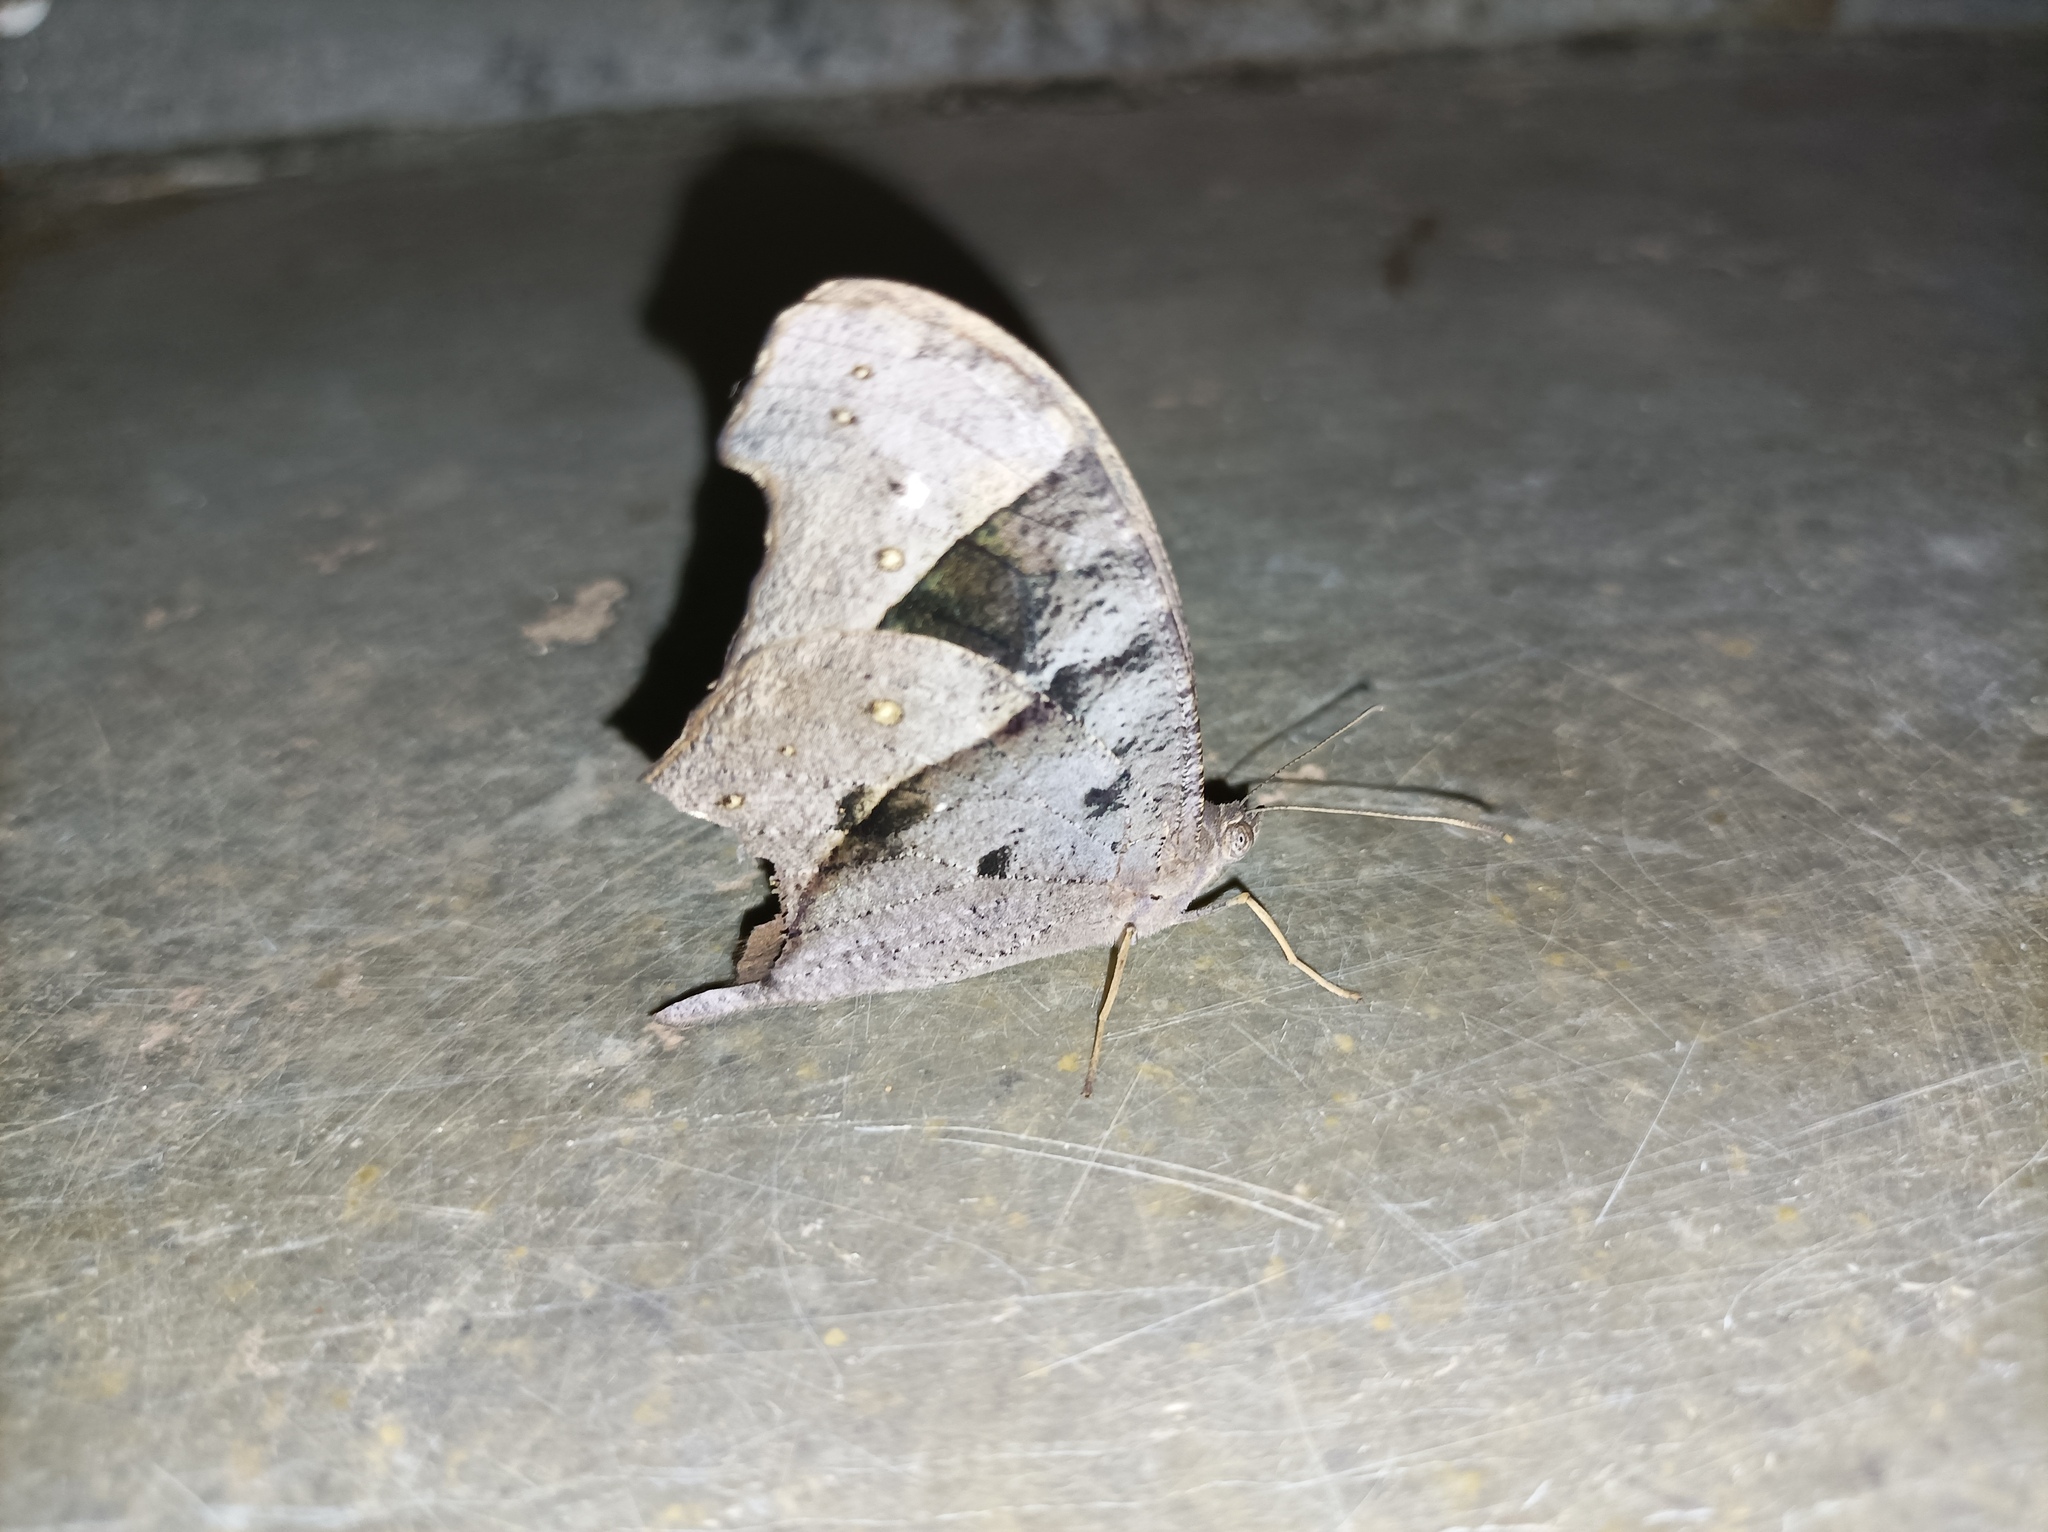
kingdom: Animalia
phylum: Arthropoda
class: Insecta
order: Lepidoptera
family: Nymphalidae
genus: Melanitis
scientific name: Melanitis leda
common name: Twilight brown
